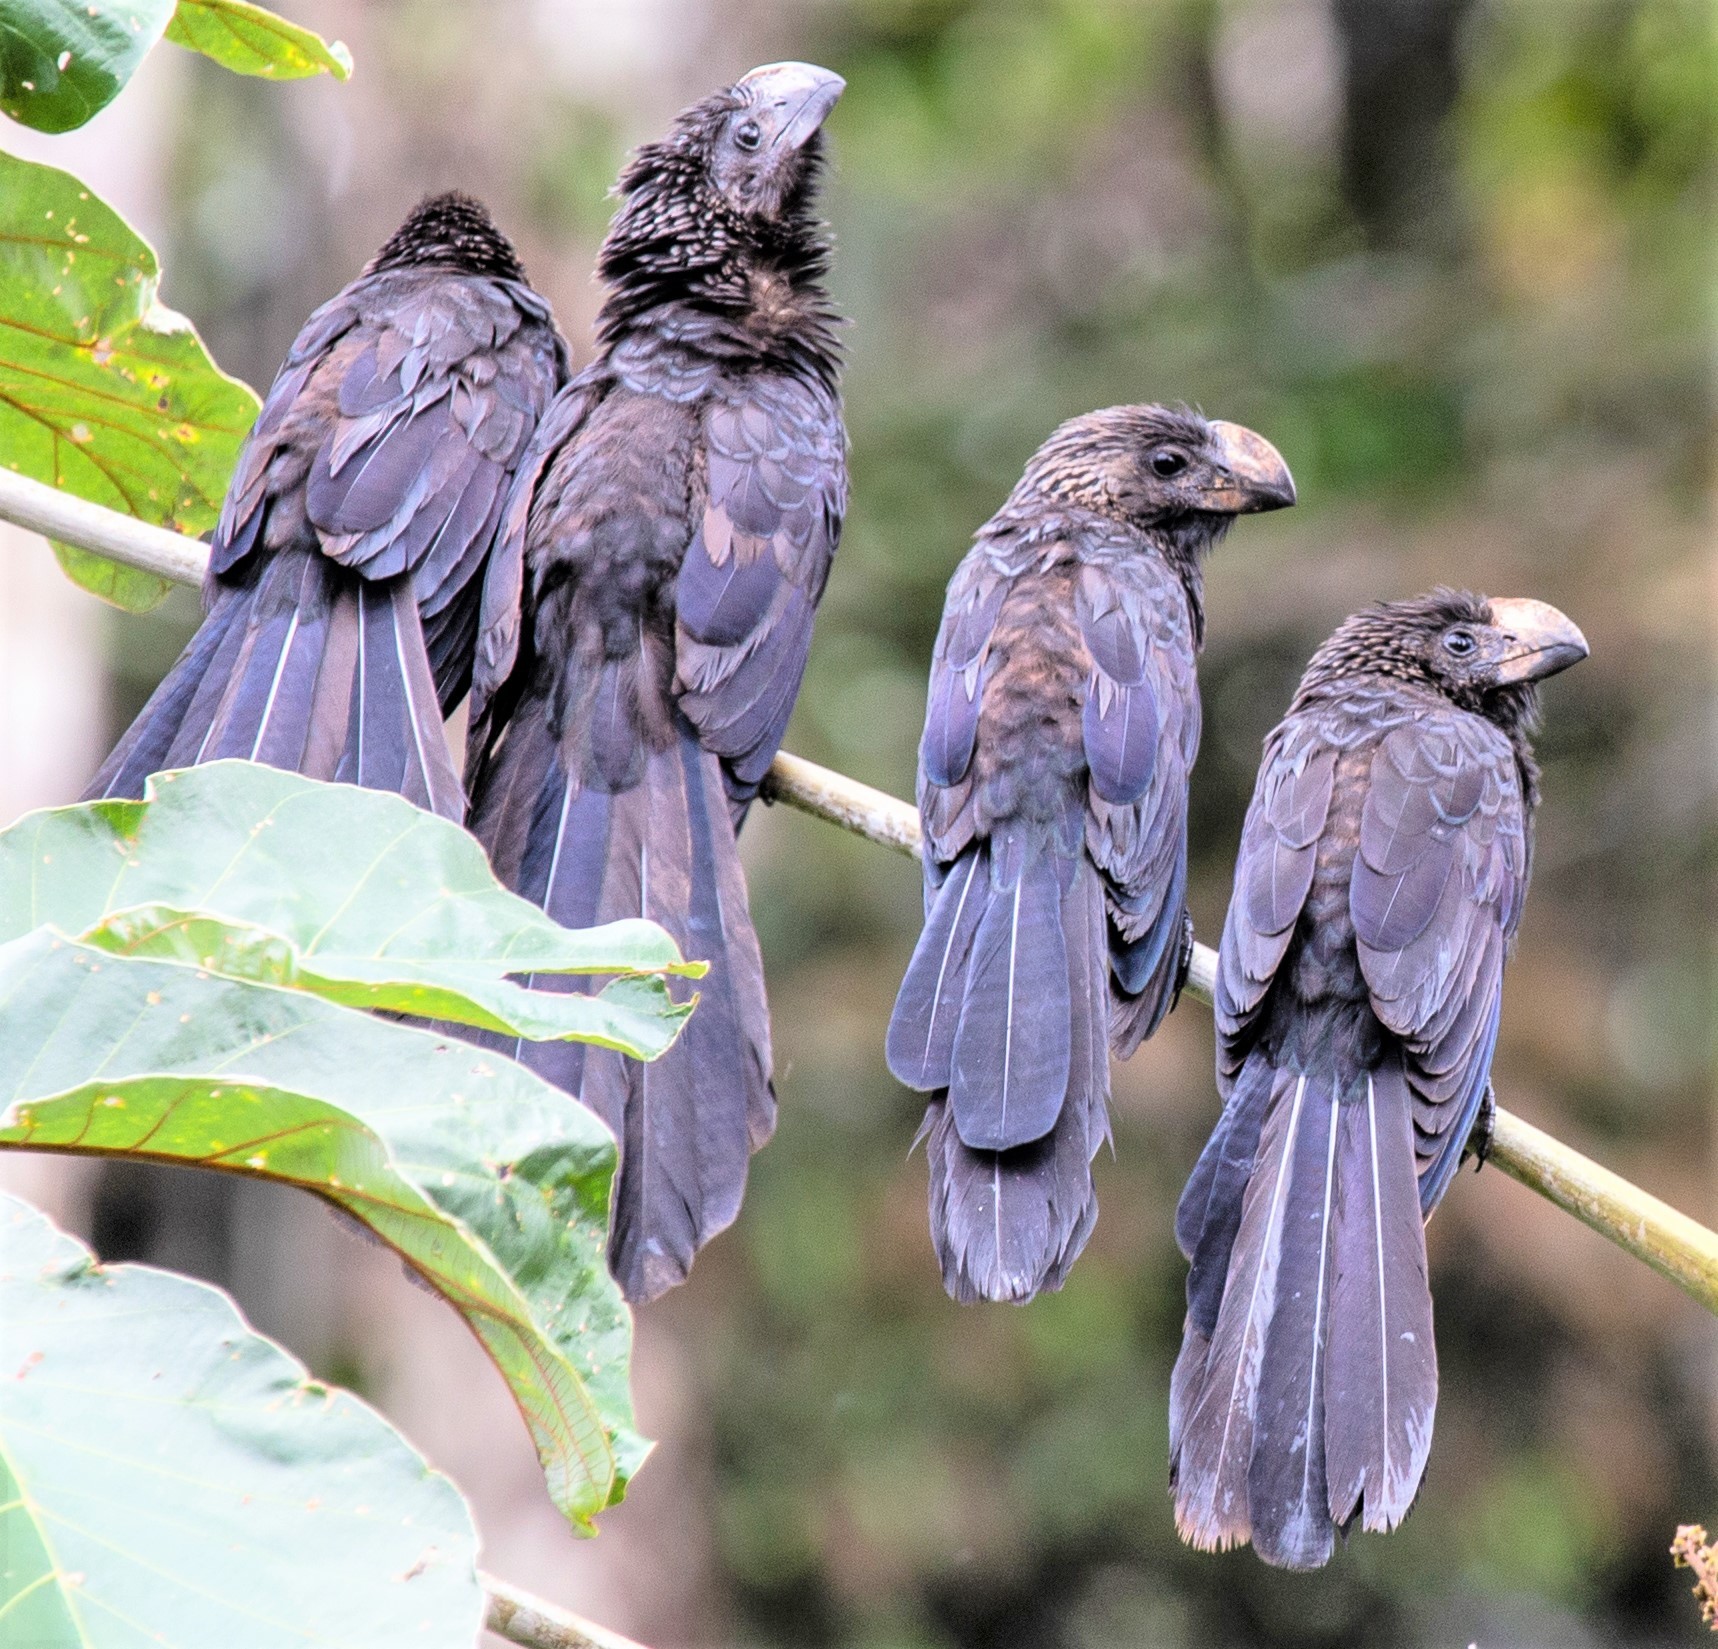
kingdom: Animalia
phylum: Chordata
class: Aves
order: Cuculiformes
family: Cuculidae
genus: Crotophaga
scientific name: Crotophaga ani
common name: Smooth-billed ani
